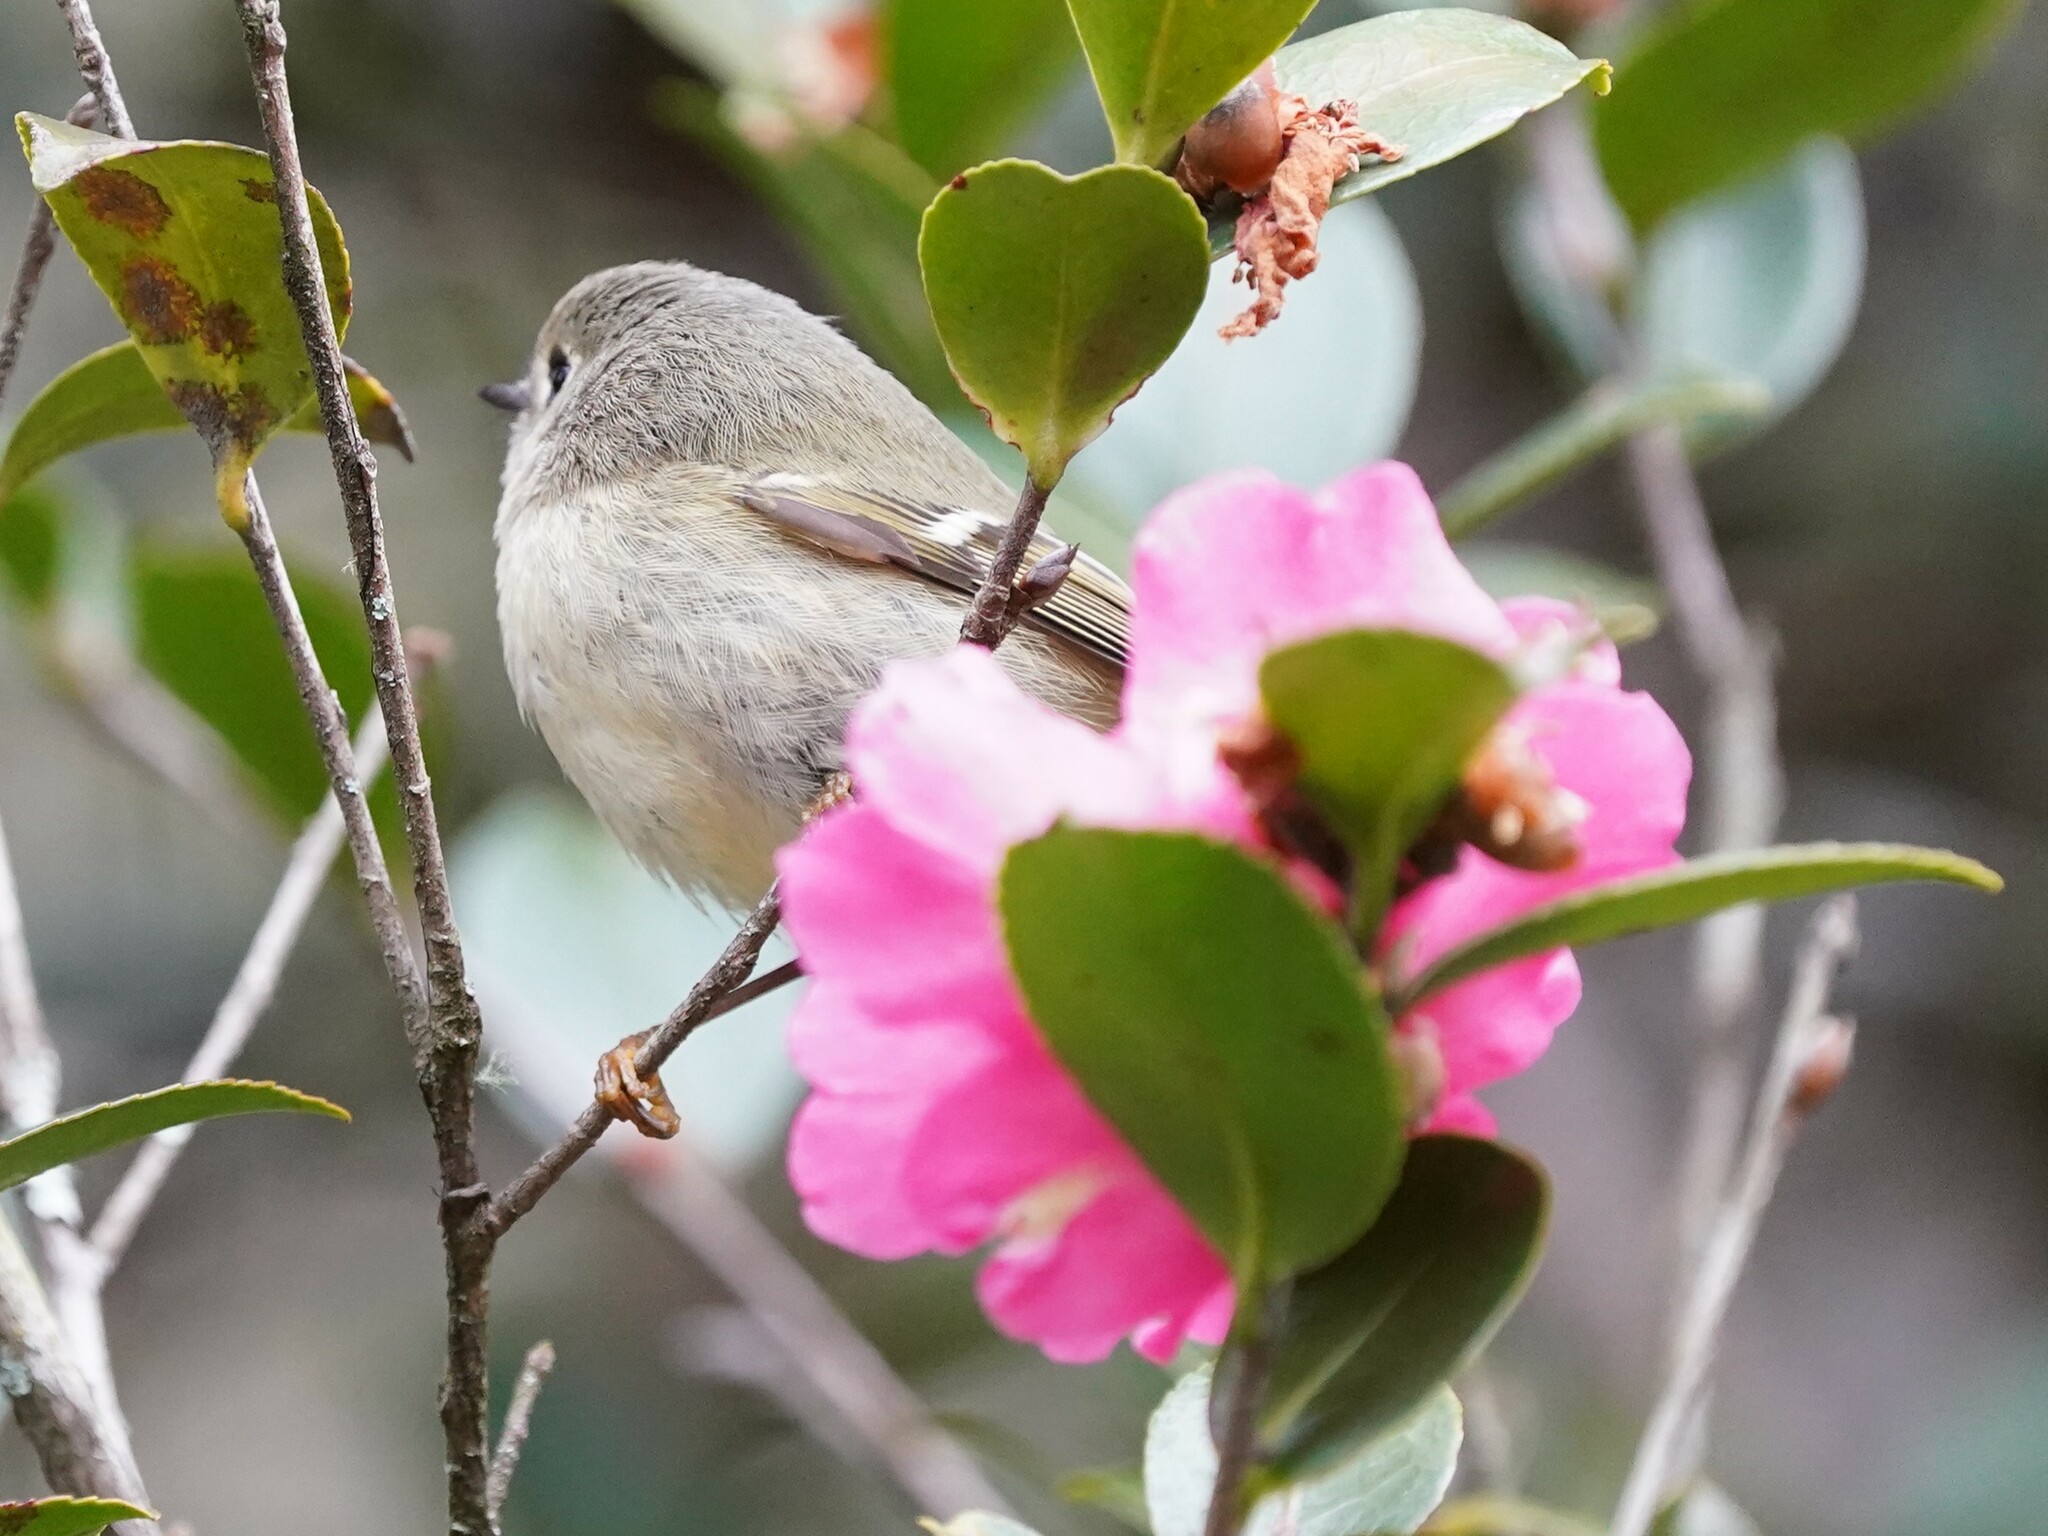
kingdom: Animalia
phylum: Chordata
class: Aves
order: Passeriformes
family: Regulidae
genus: Regulus
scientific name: Regulus calendula
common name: Ruby-crowned kinglet
